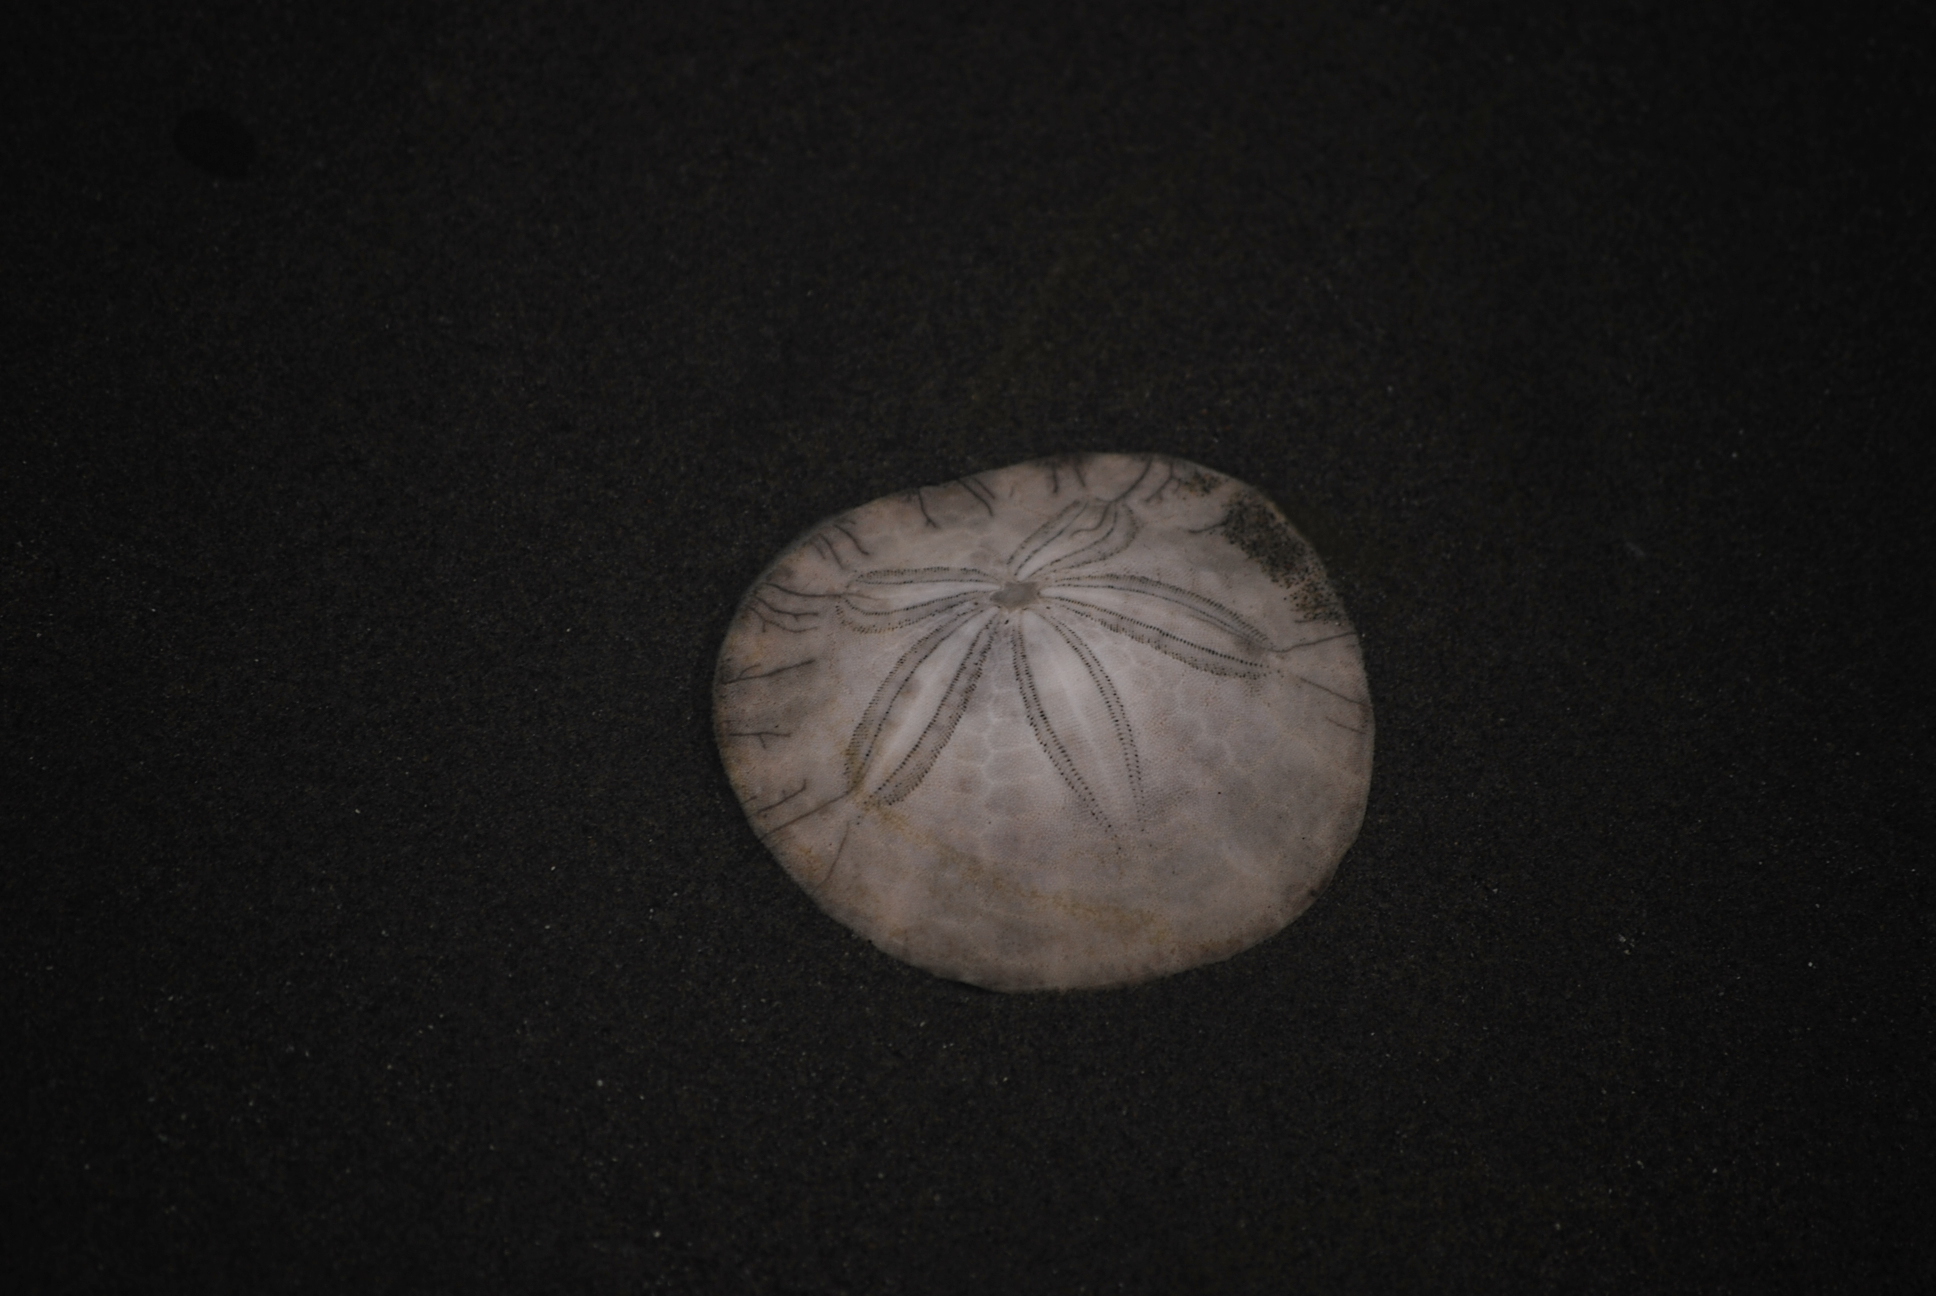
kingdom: Animalia
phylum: Echinodermata
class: Echinoidea
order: Echinolampadacea
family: Dendrasteridae
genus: Dendraster
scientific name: Dendraster excentricus
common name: Eccentric sand dollar sea urchin
